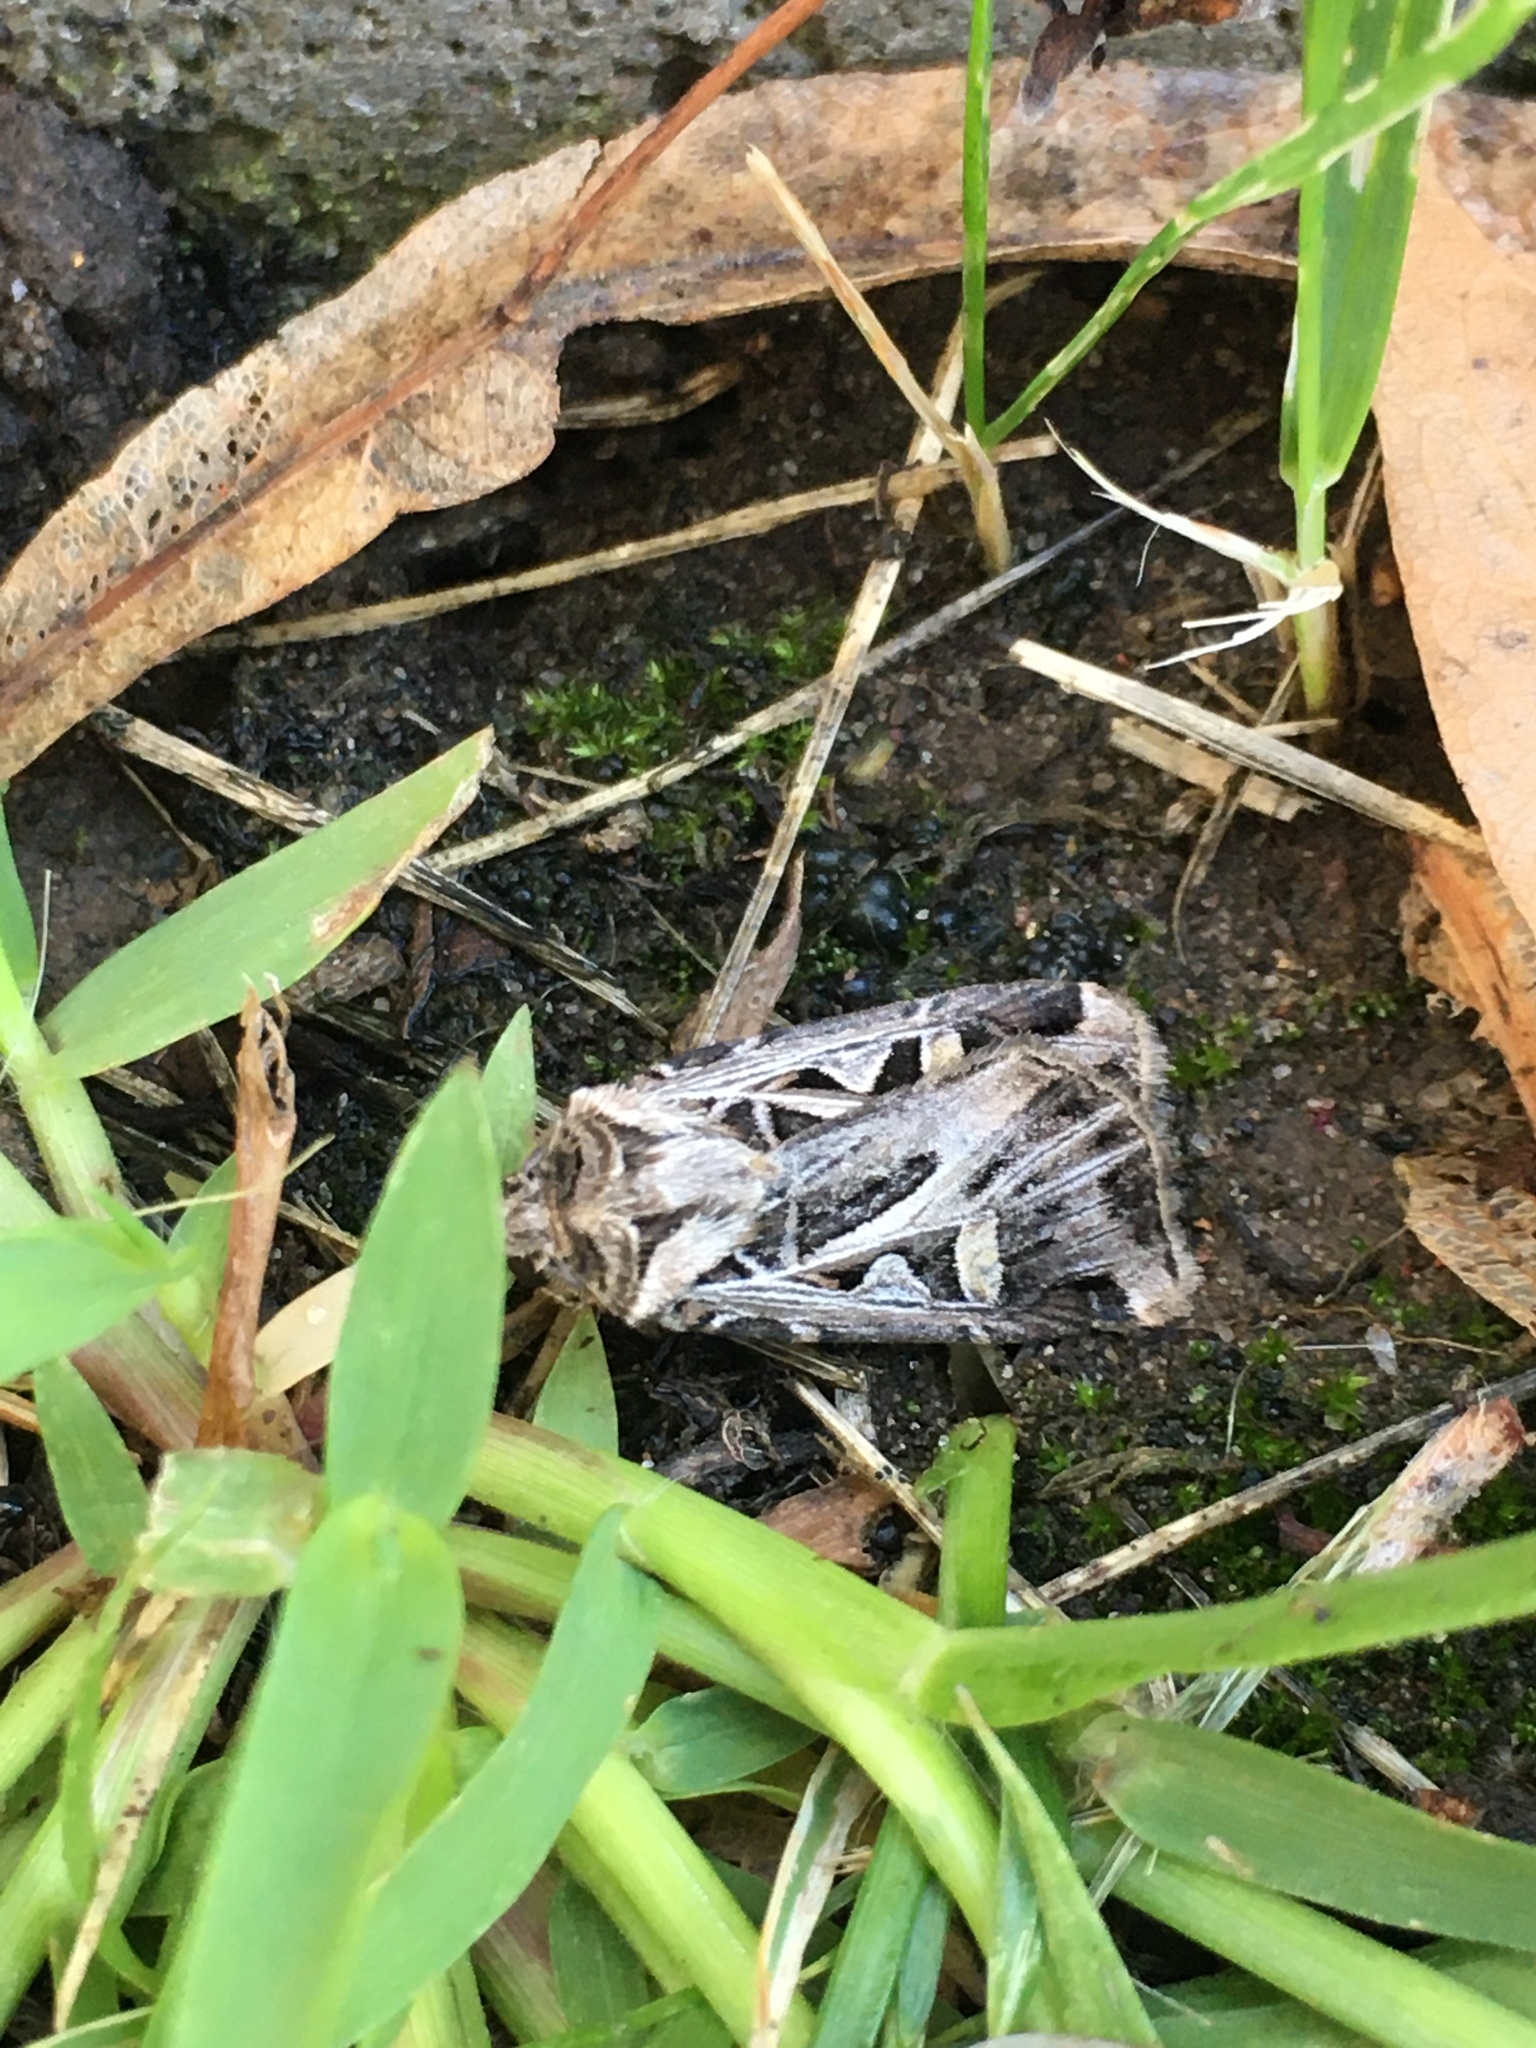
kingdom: Animalia
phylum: Arthropoda
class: Insecta
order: Lepidoptera
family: Noctuidae
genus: Feltia
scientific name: Feltia jaculifera
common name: Dingy cutworm moth
